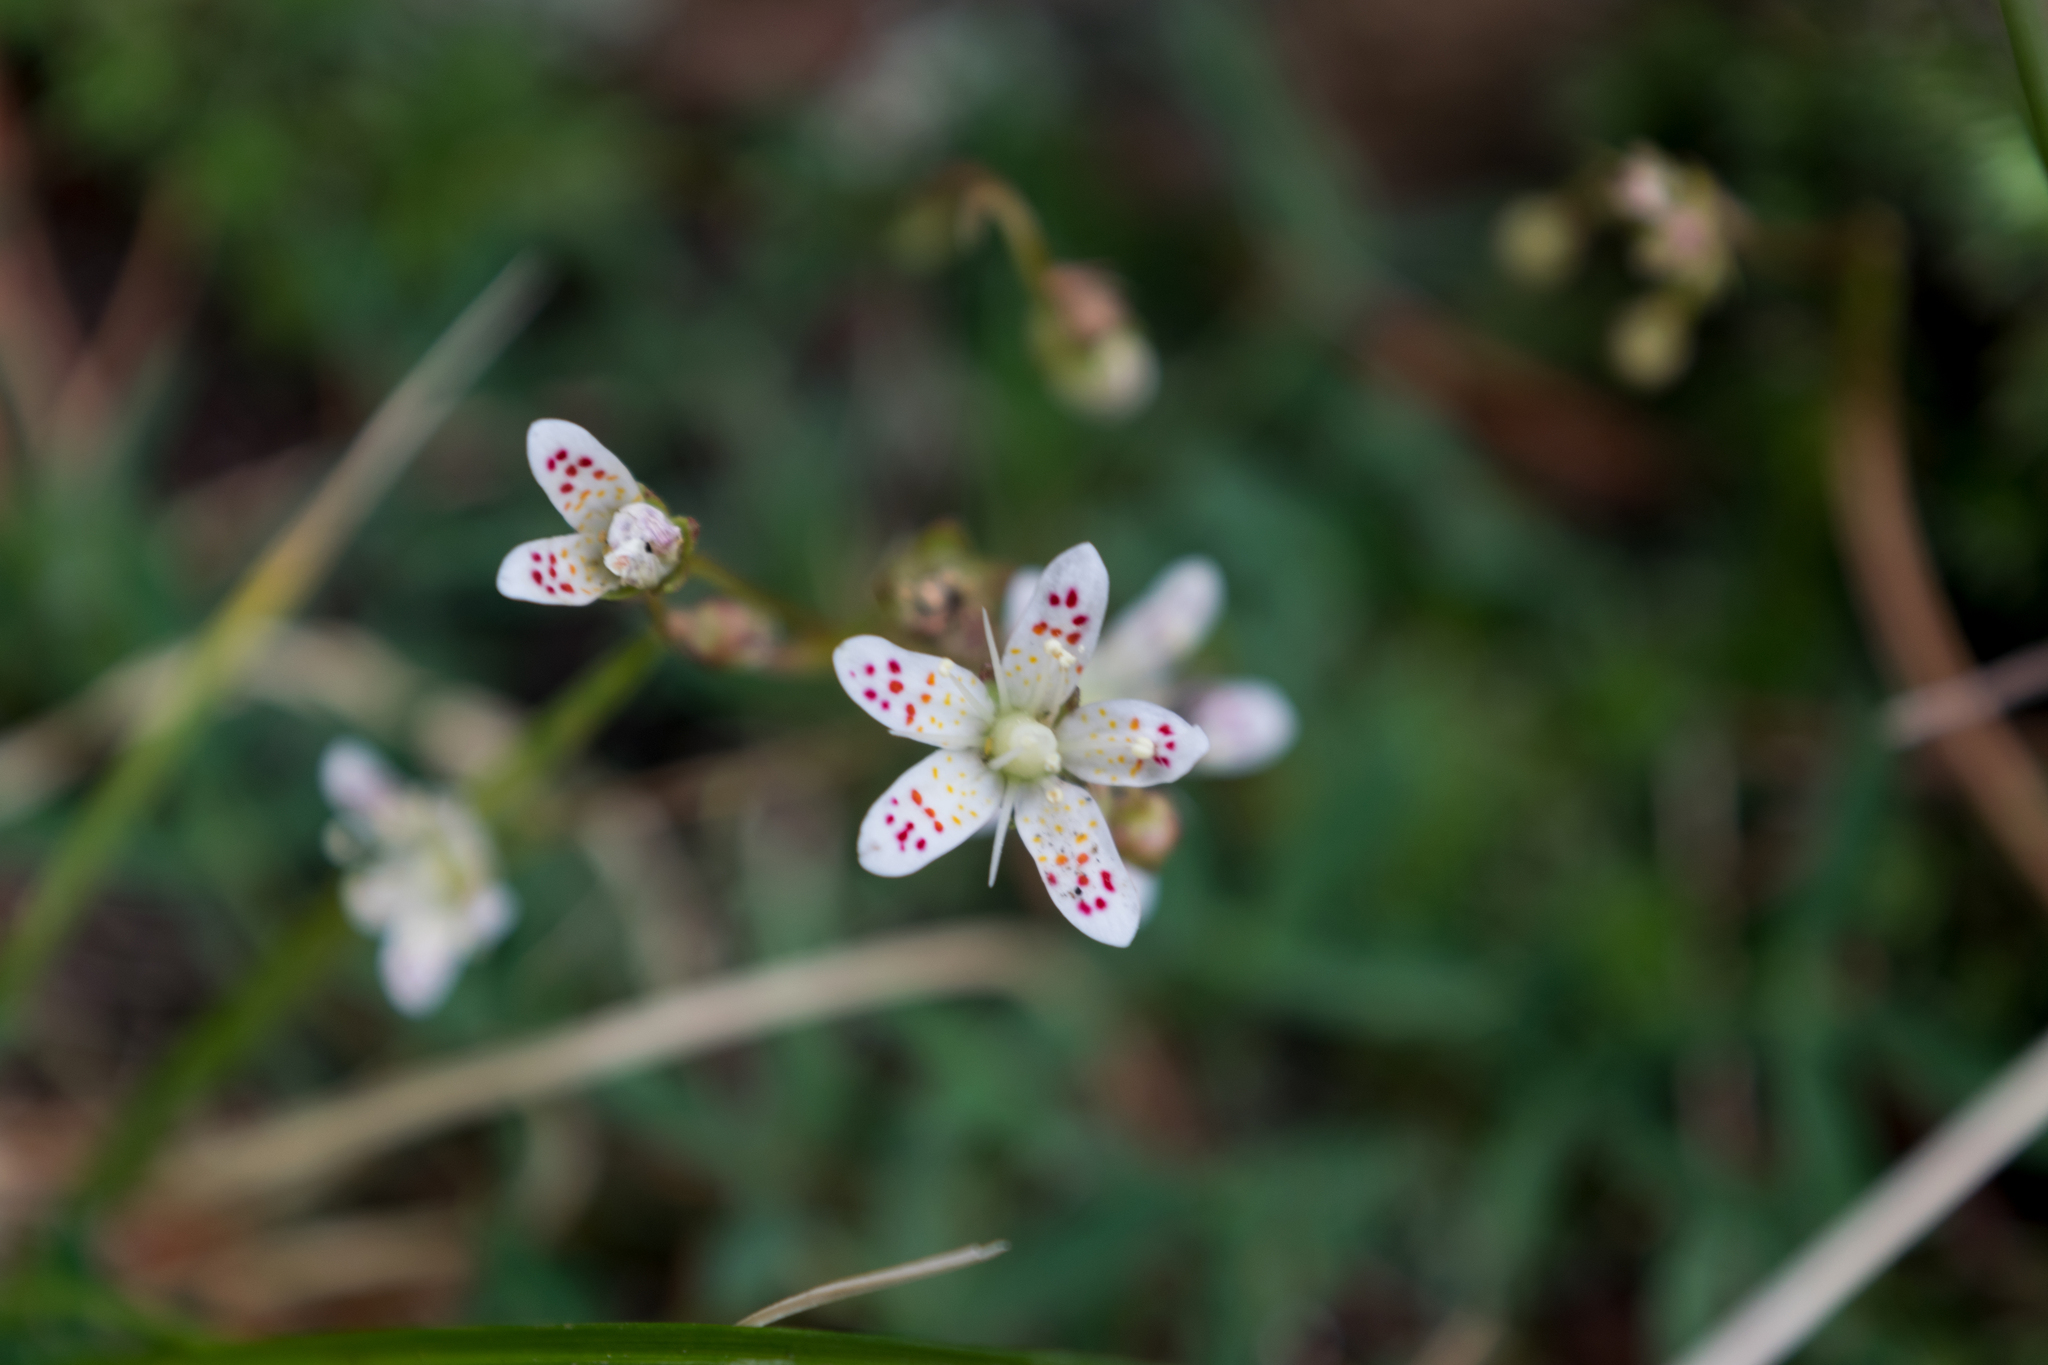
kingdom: Plantae
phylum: Tracheophyta
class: Magnoliopsida
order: Saxifragales
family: Saxifragaceae
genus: Saxifraga
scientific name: Saxifraga bronchialis
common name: Matted saxifrage
